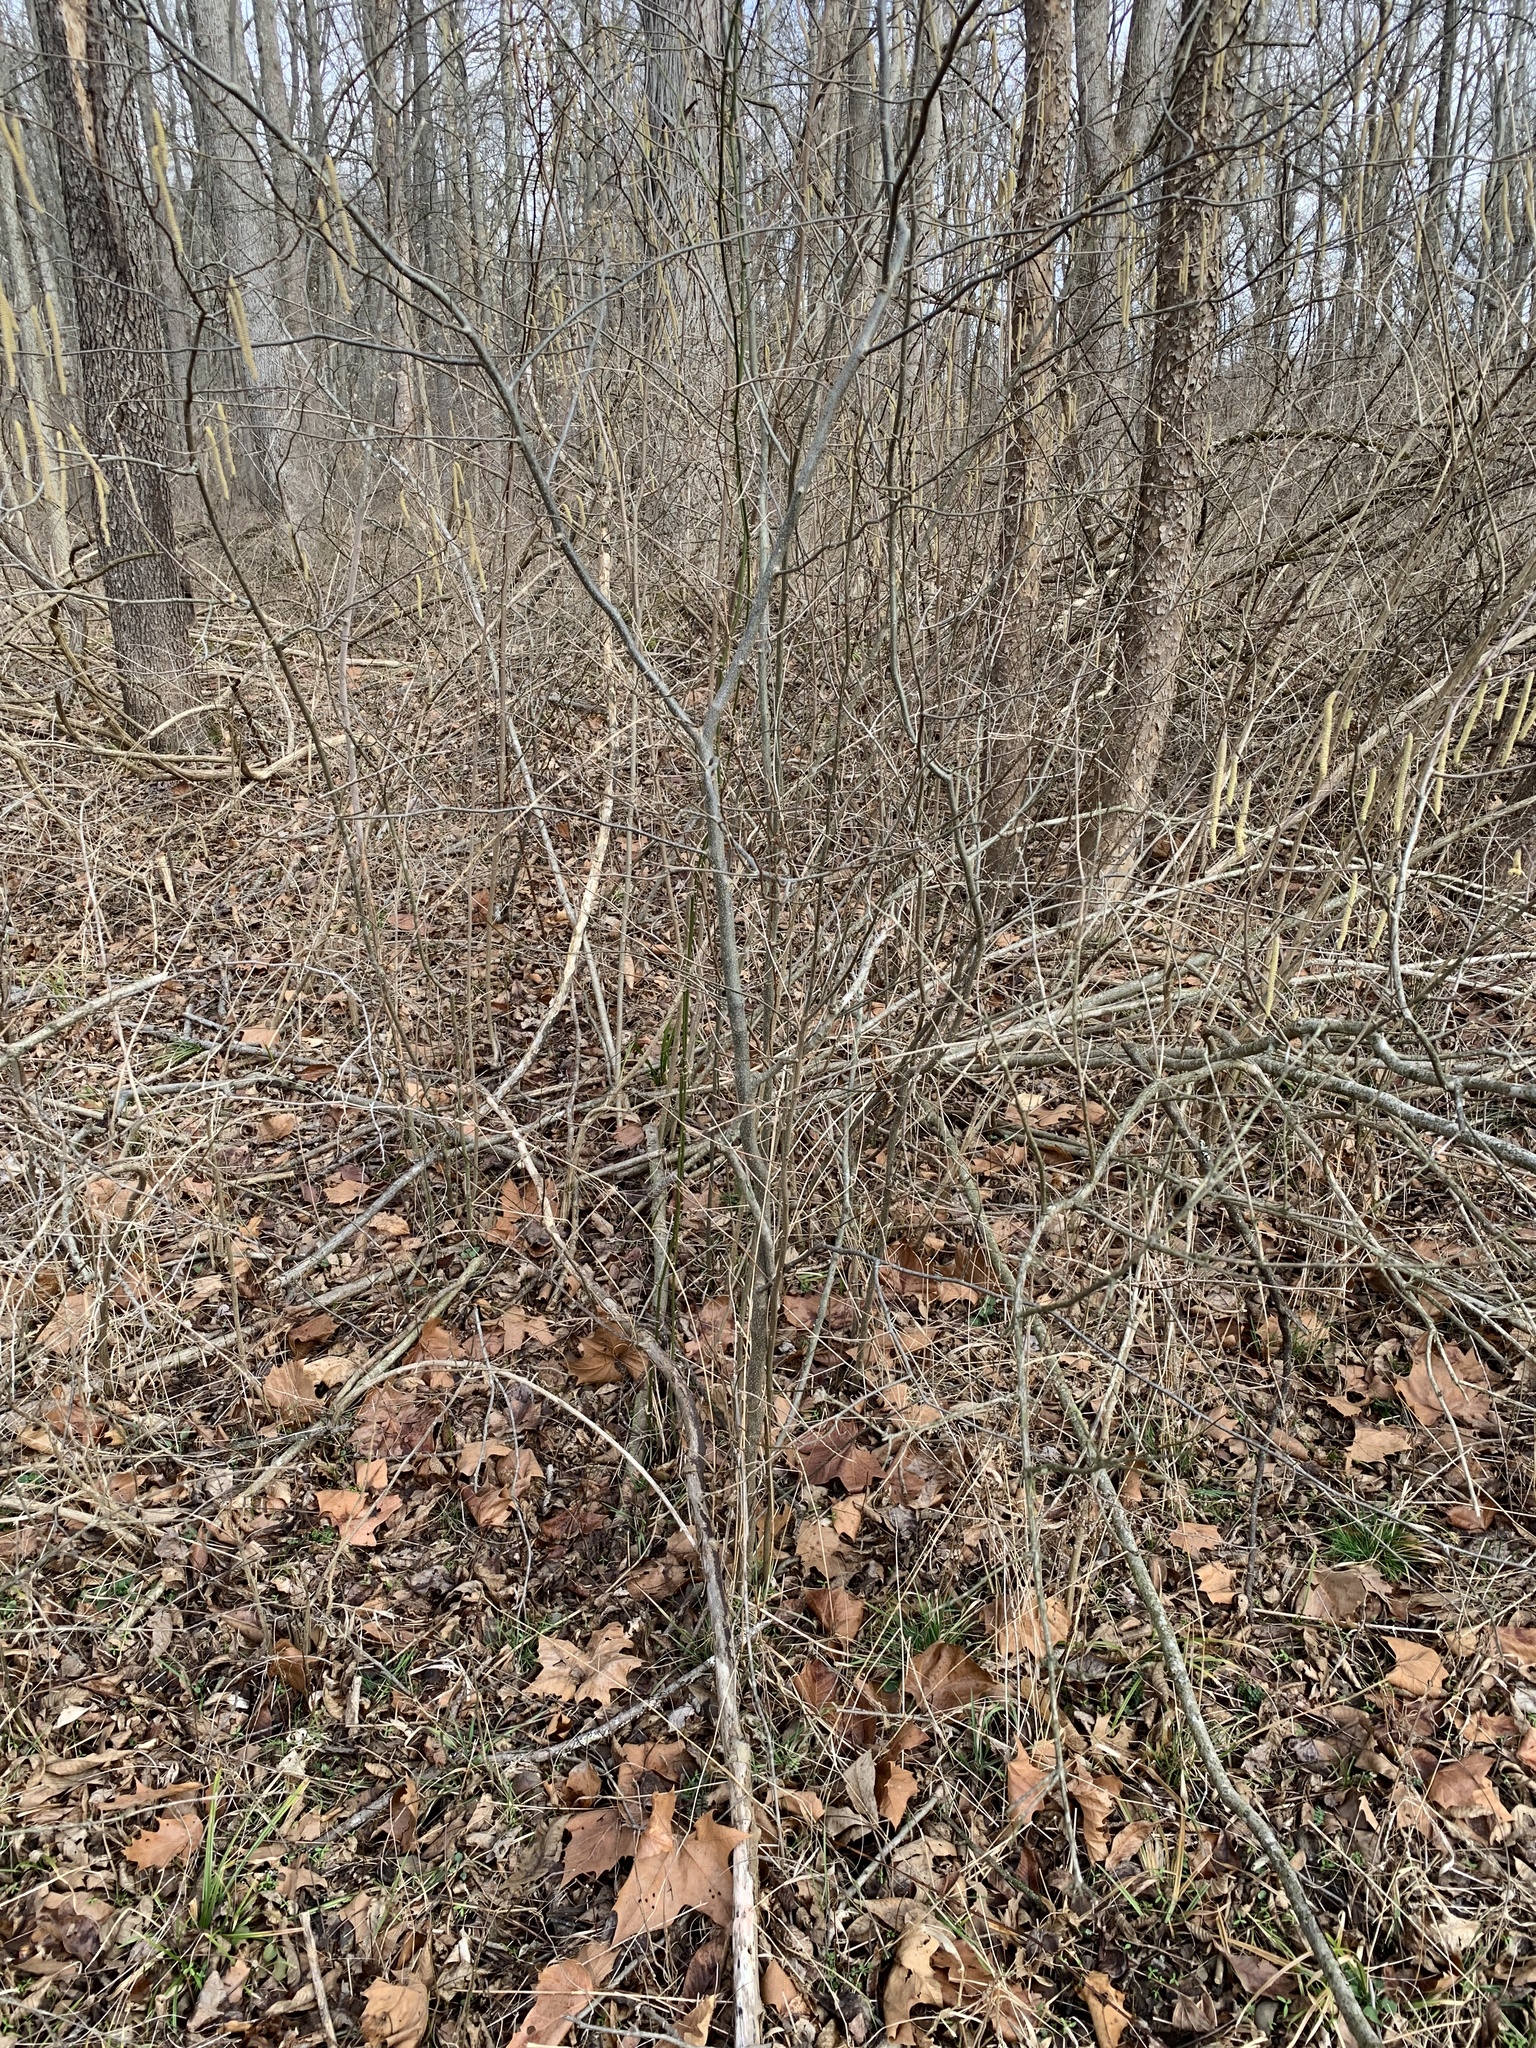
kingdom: Plantae
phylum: Tracheophyta
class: Magnoliopsida
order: Fagales
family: Betulaceae
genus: Corylus
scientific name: Corylus americana
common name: American hazel
